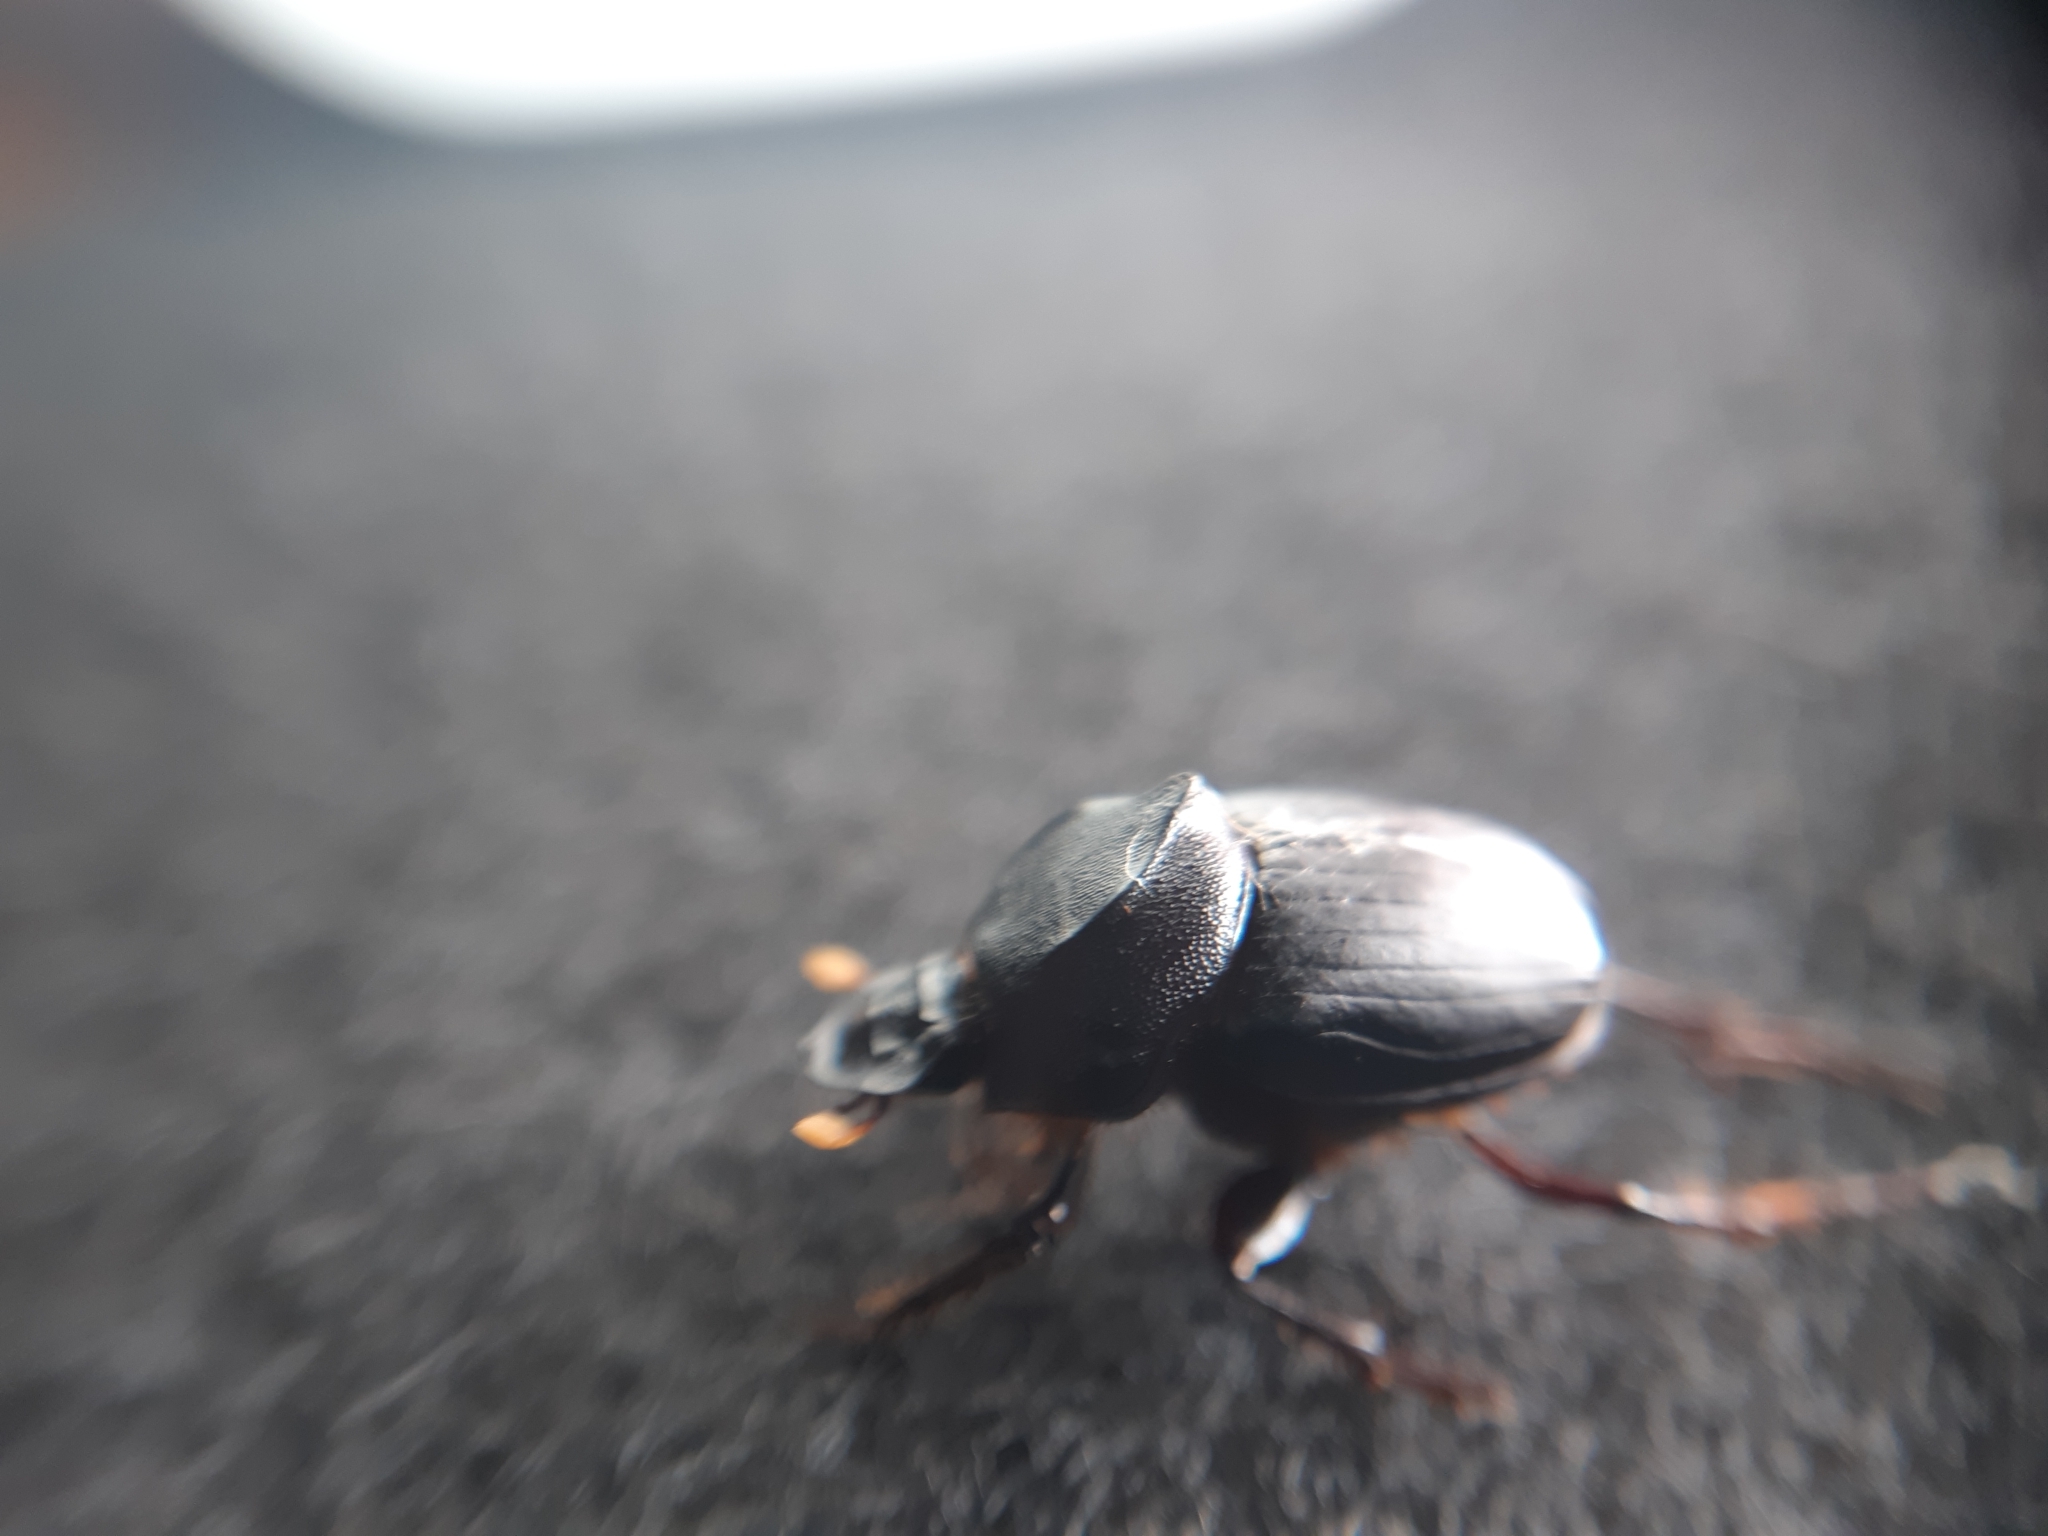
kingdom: Animalia
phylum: Arthropoda
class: Insecta
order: Coleoptera
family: Scarabaeidae
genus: Onthophagus
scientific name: Onthophagus declivis
